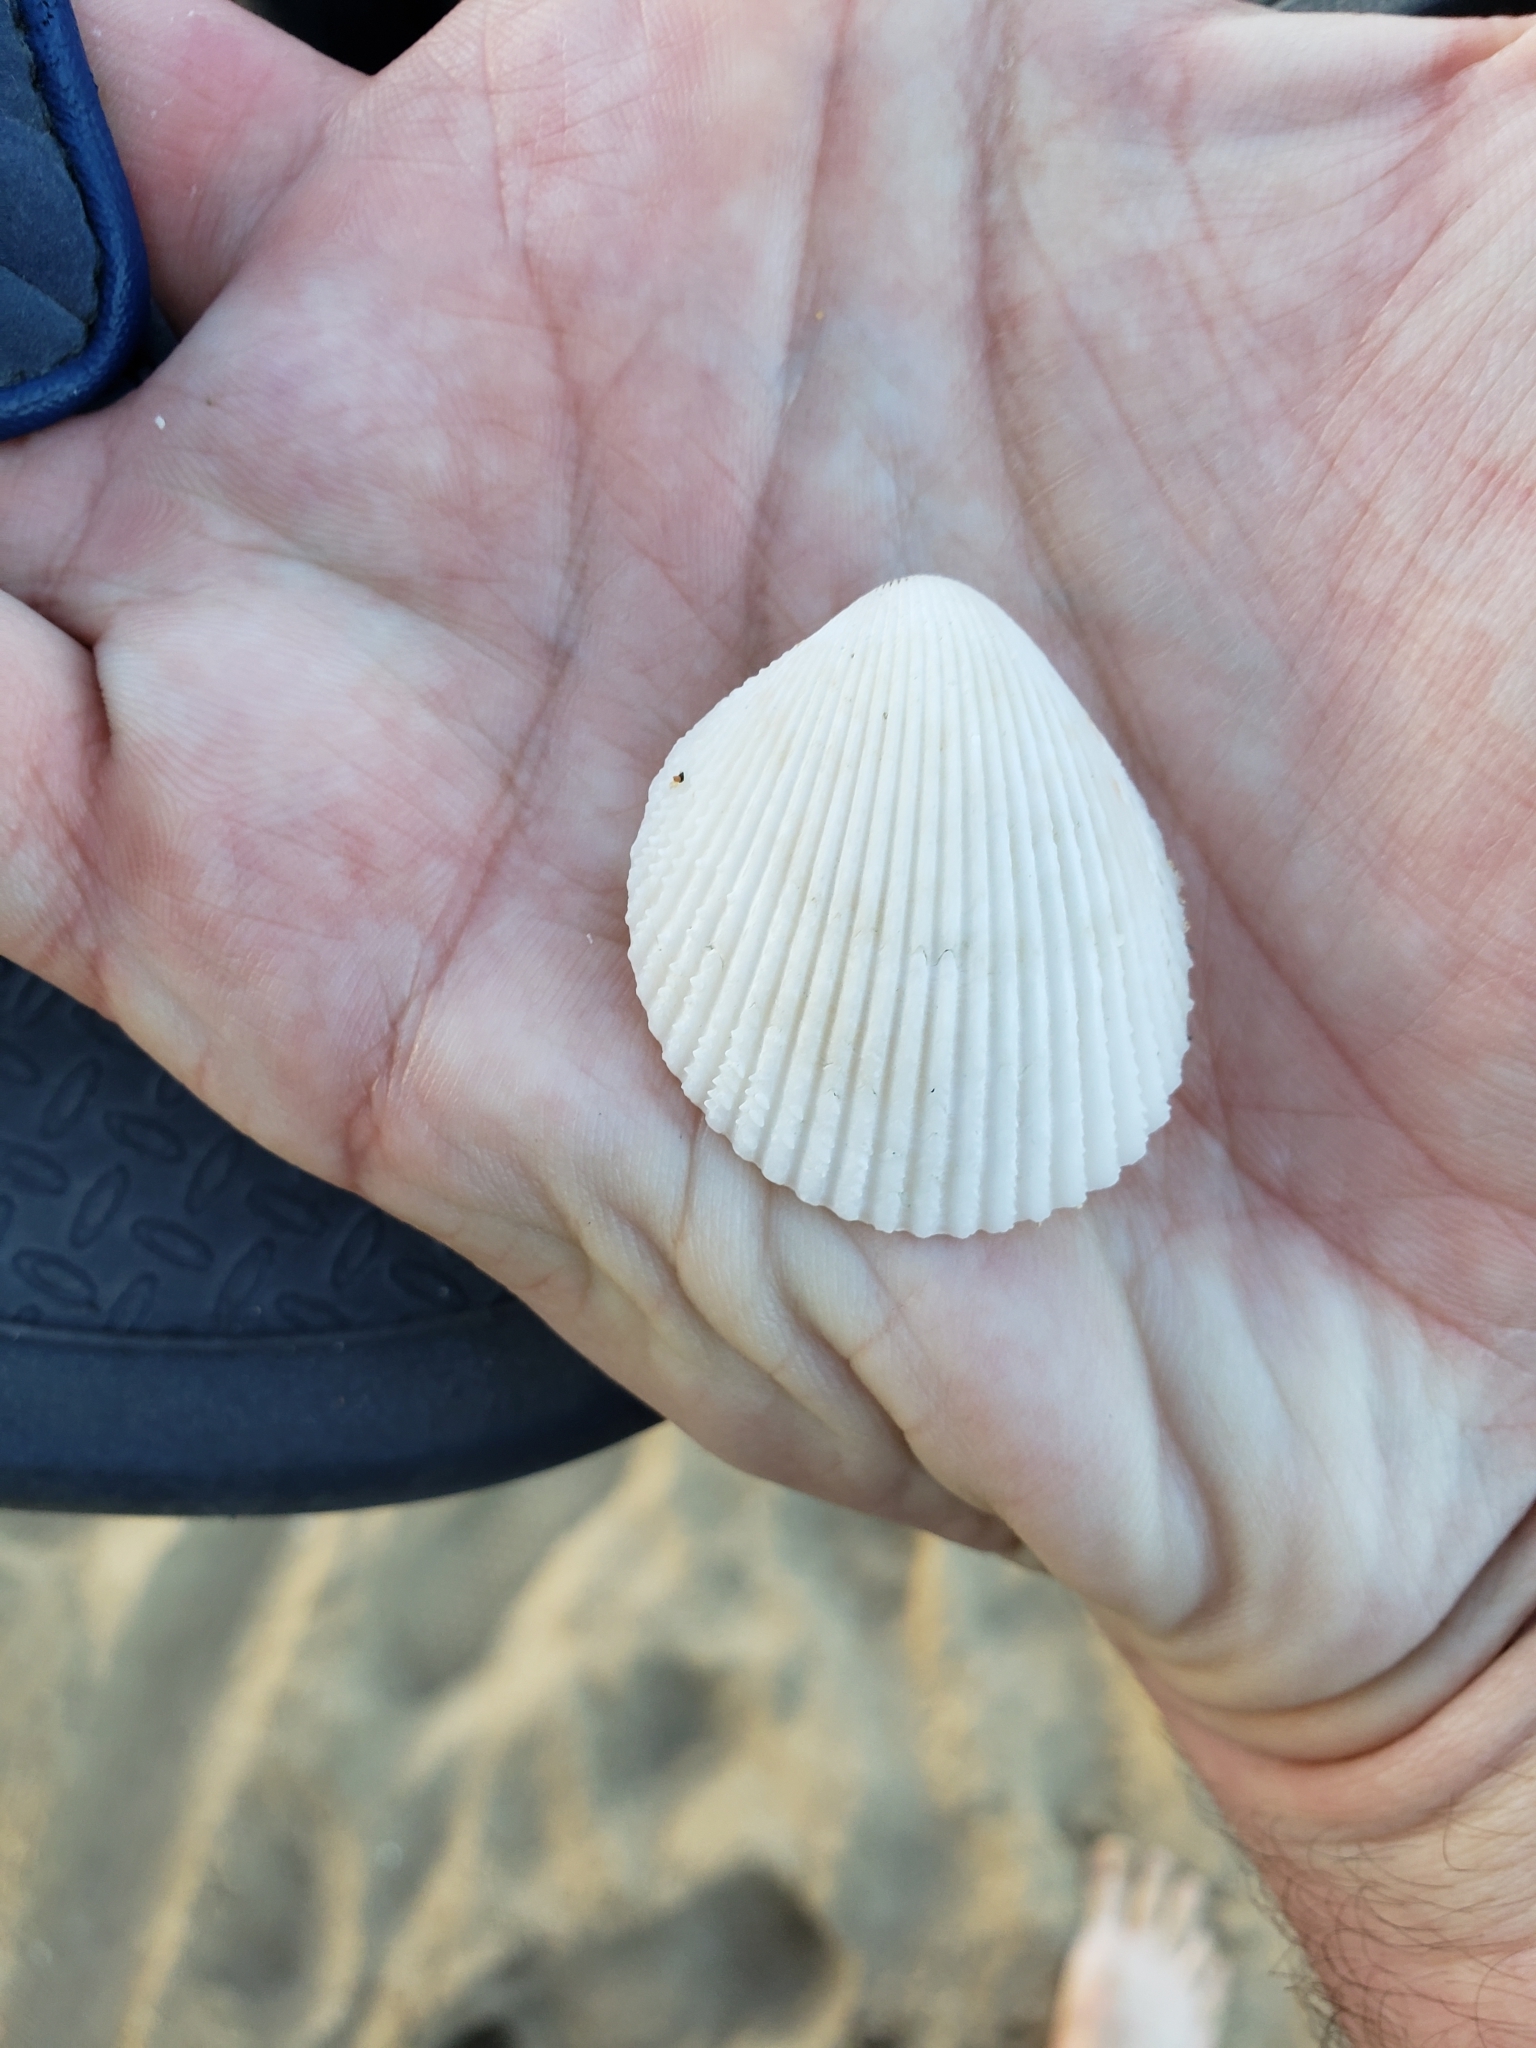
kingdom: Animalia
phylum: Mollusca
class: Bivalvia
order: Cardiida
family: Cardiidae
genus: Trachycardium
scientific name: Trachycardium egmontianum
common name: Florida pricklycockle
